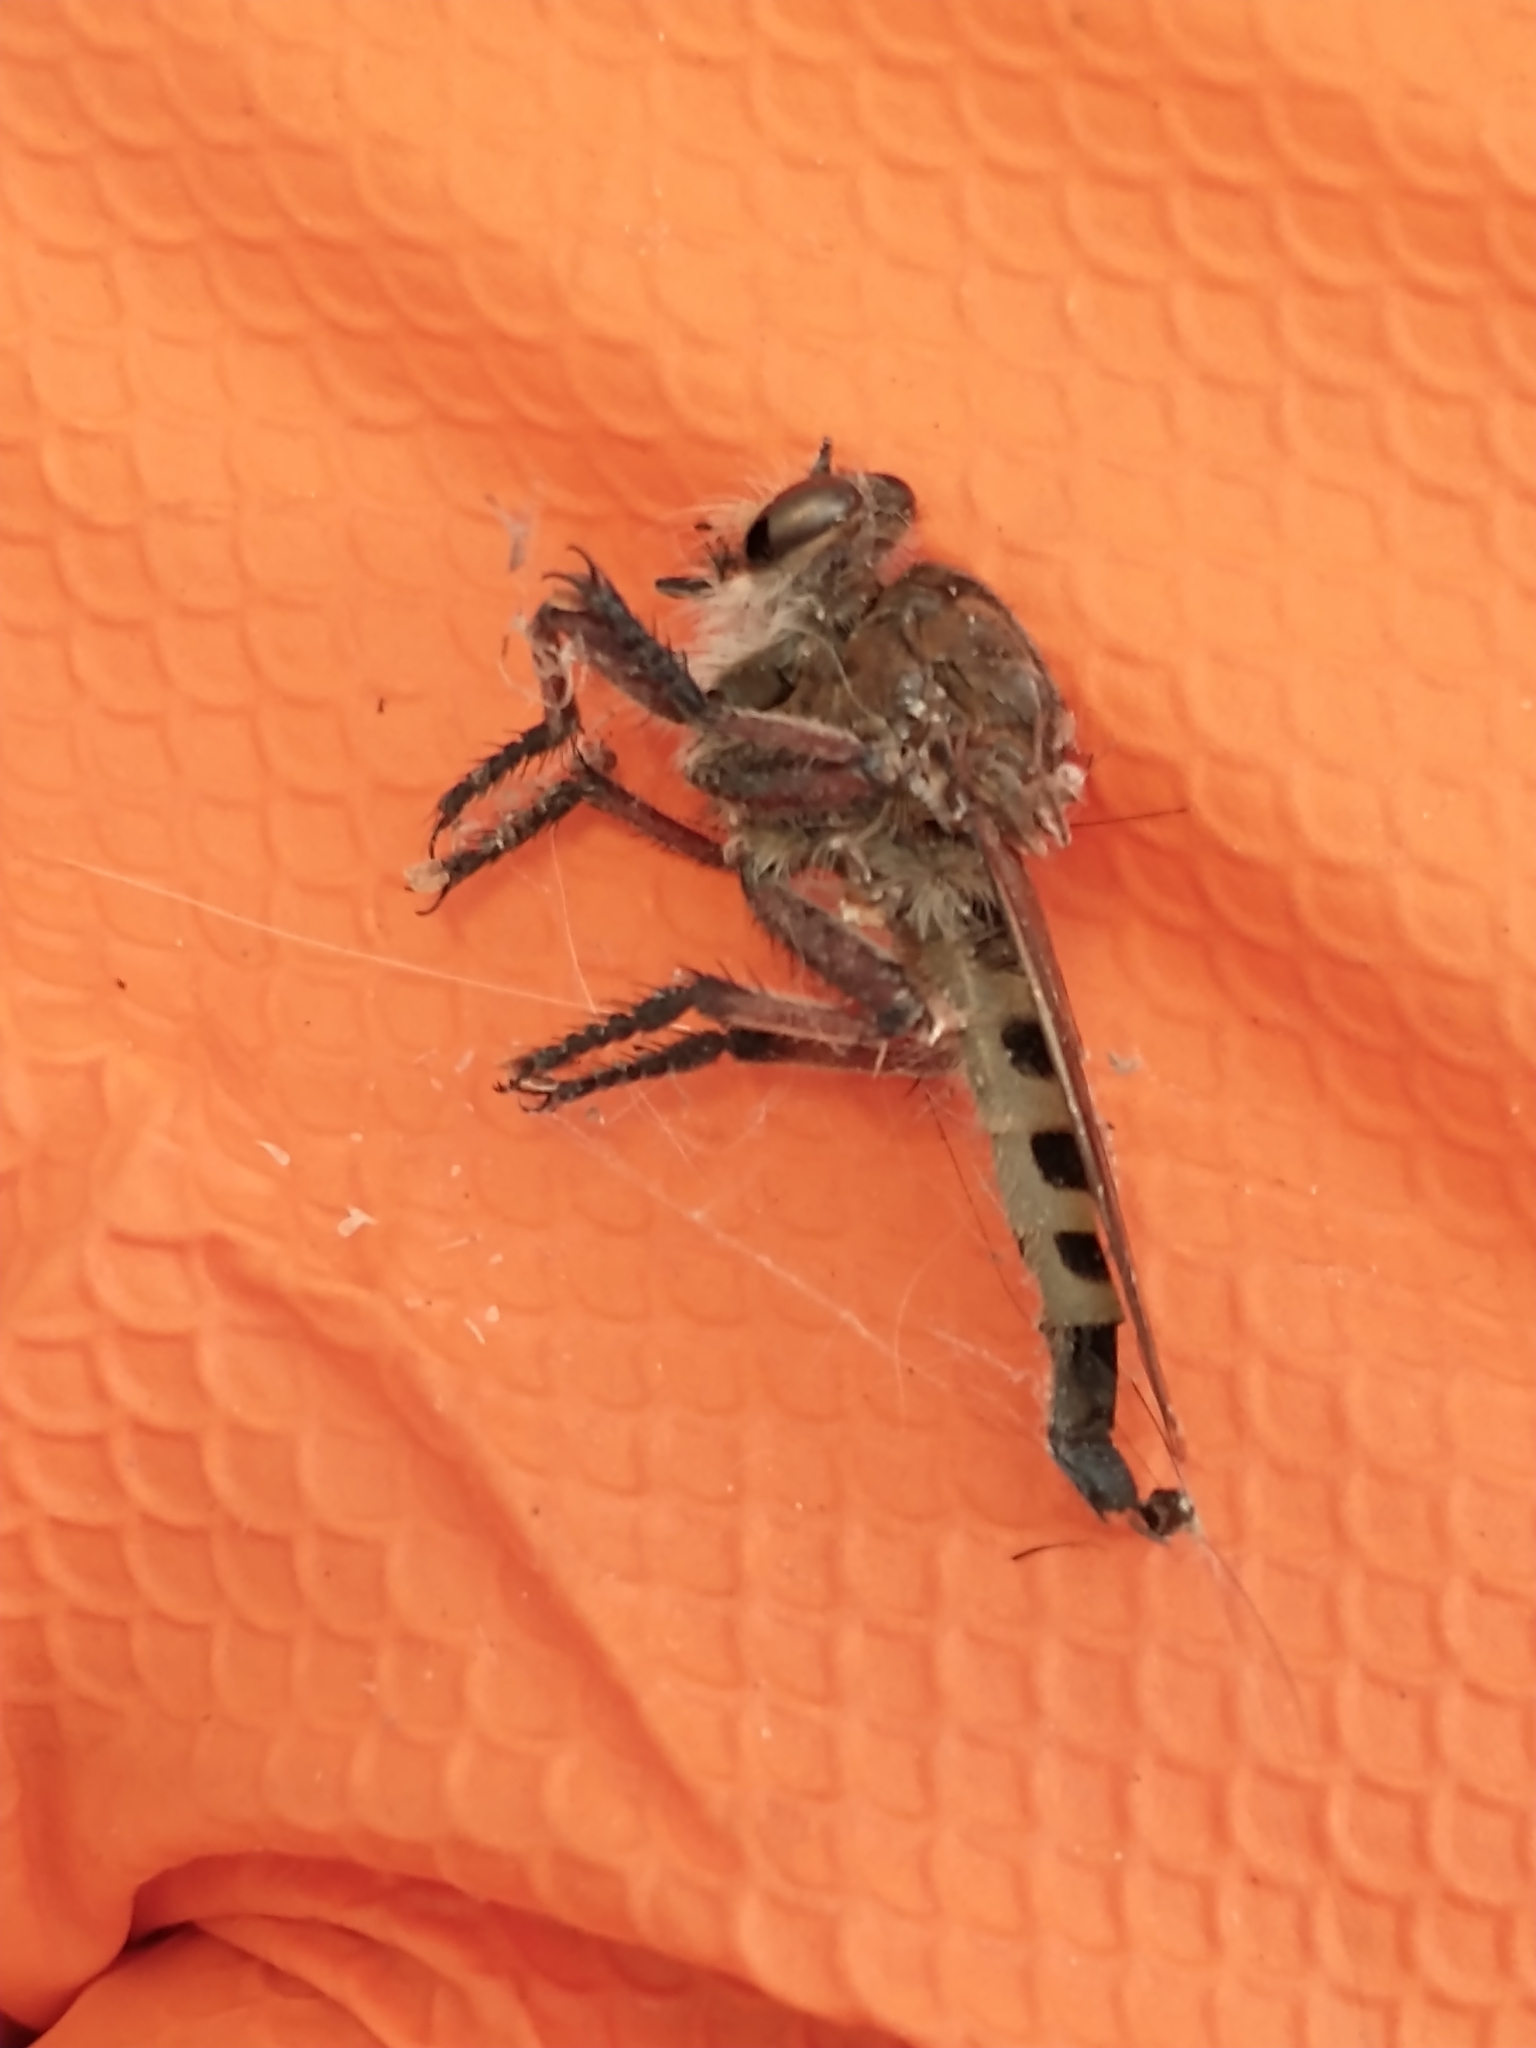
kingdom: Animalia
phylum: Arthropoda
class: Insecta
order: Diptera
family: Asilidae
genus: Promachus
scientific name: Promachus hinei
